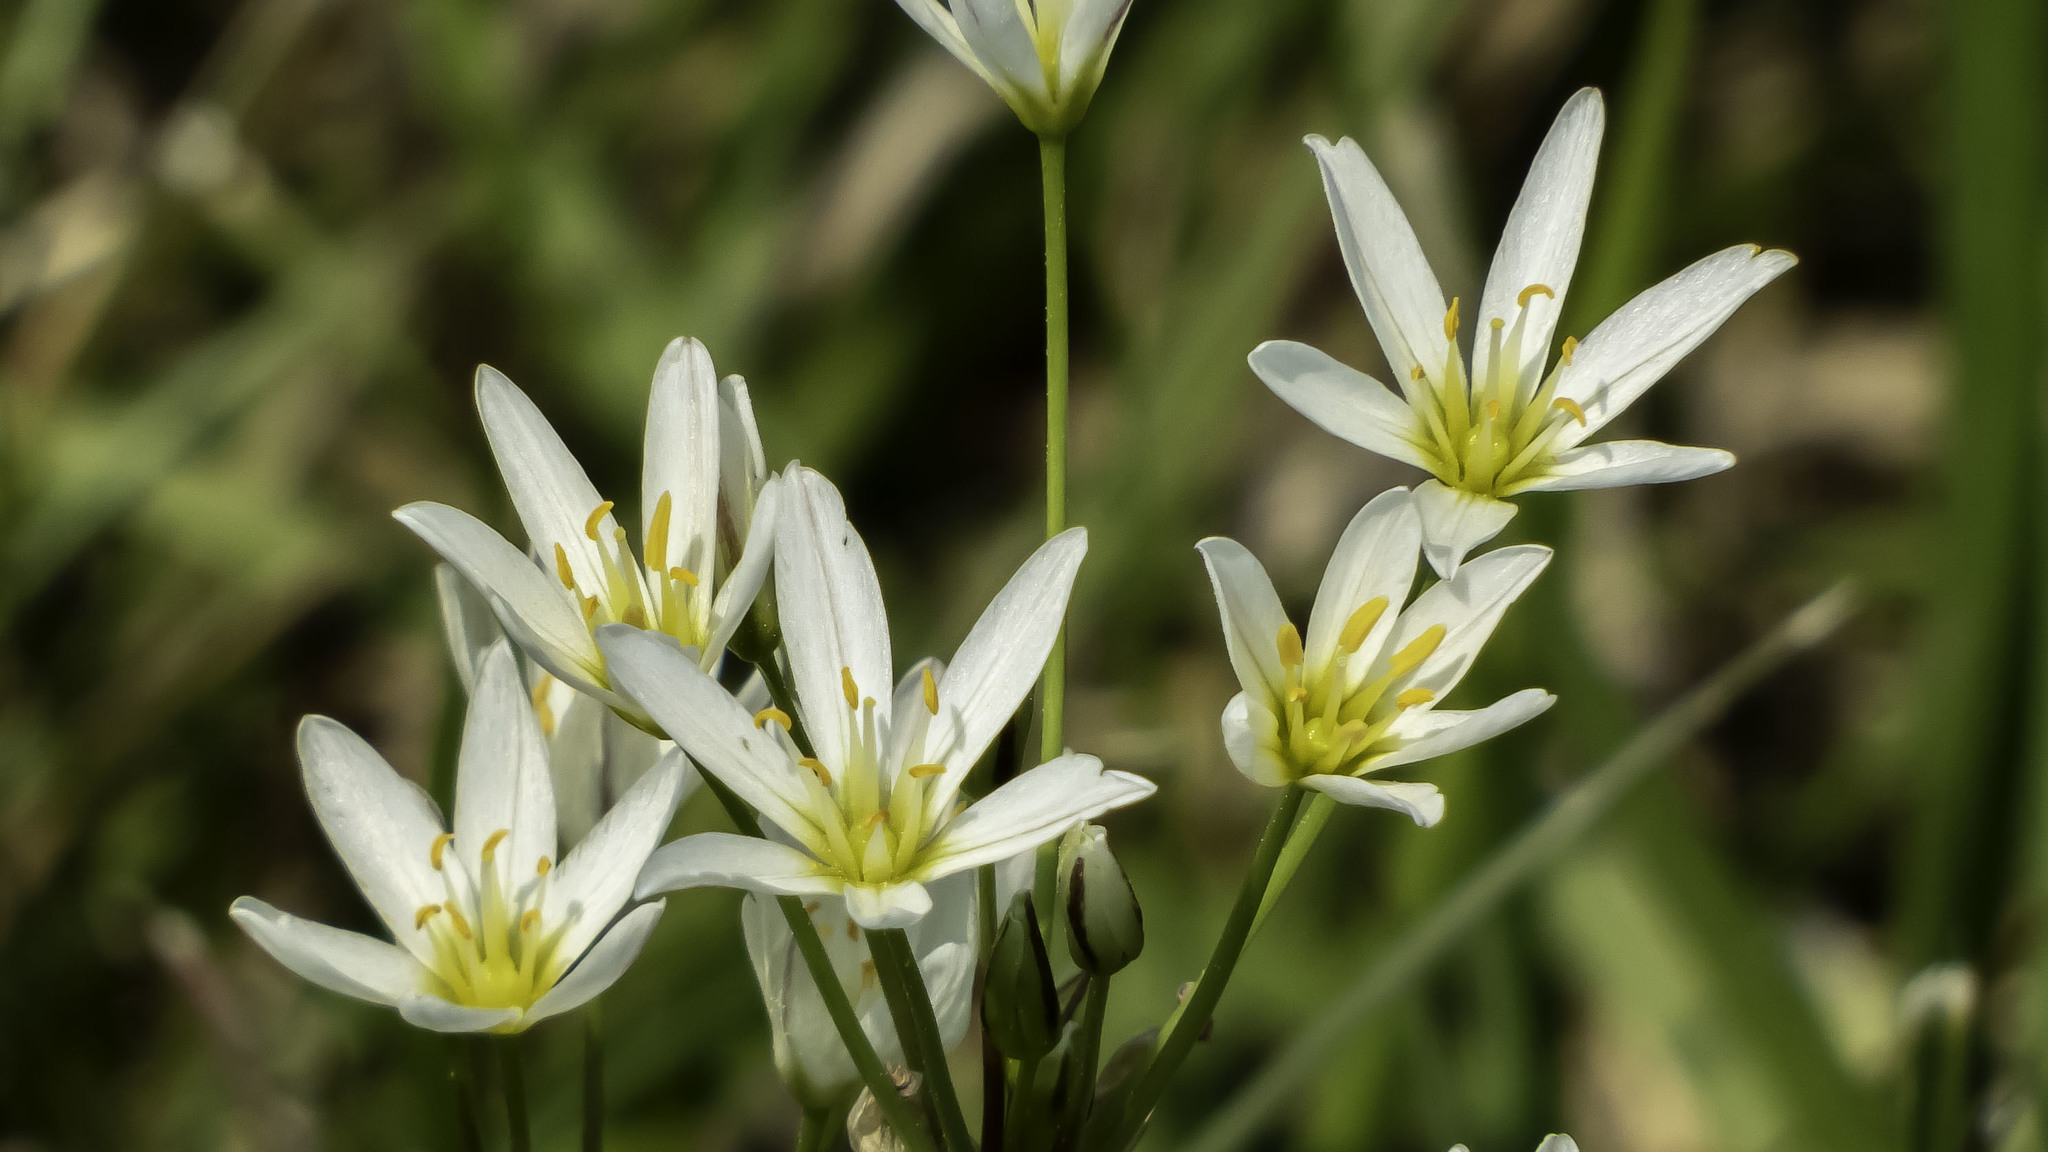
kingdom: Plantae
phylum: Tracheophyta
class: Liliopsida
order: Asparagales
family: Amaryllidaceae
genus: Nothoscordum
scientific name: Nothoscordum bivalve
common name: Crow-poison
